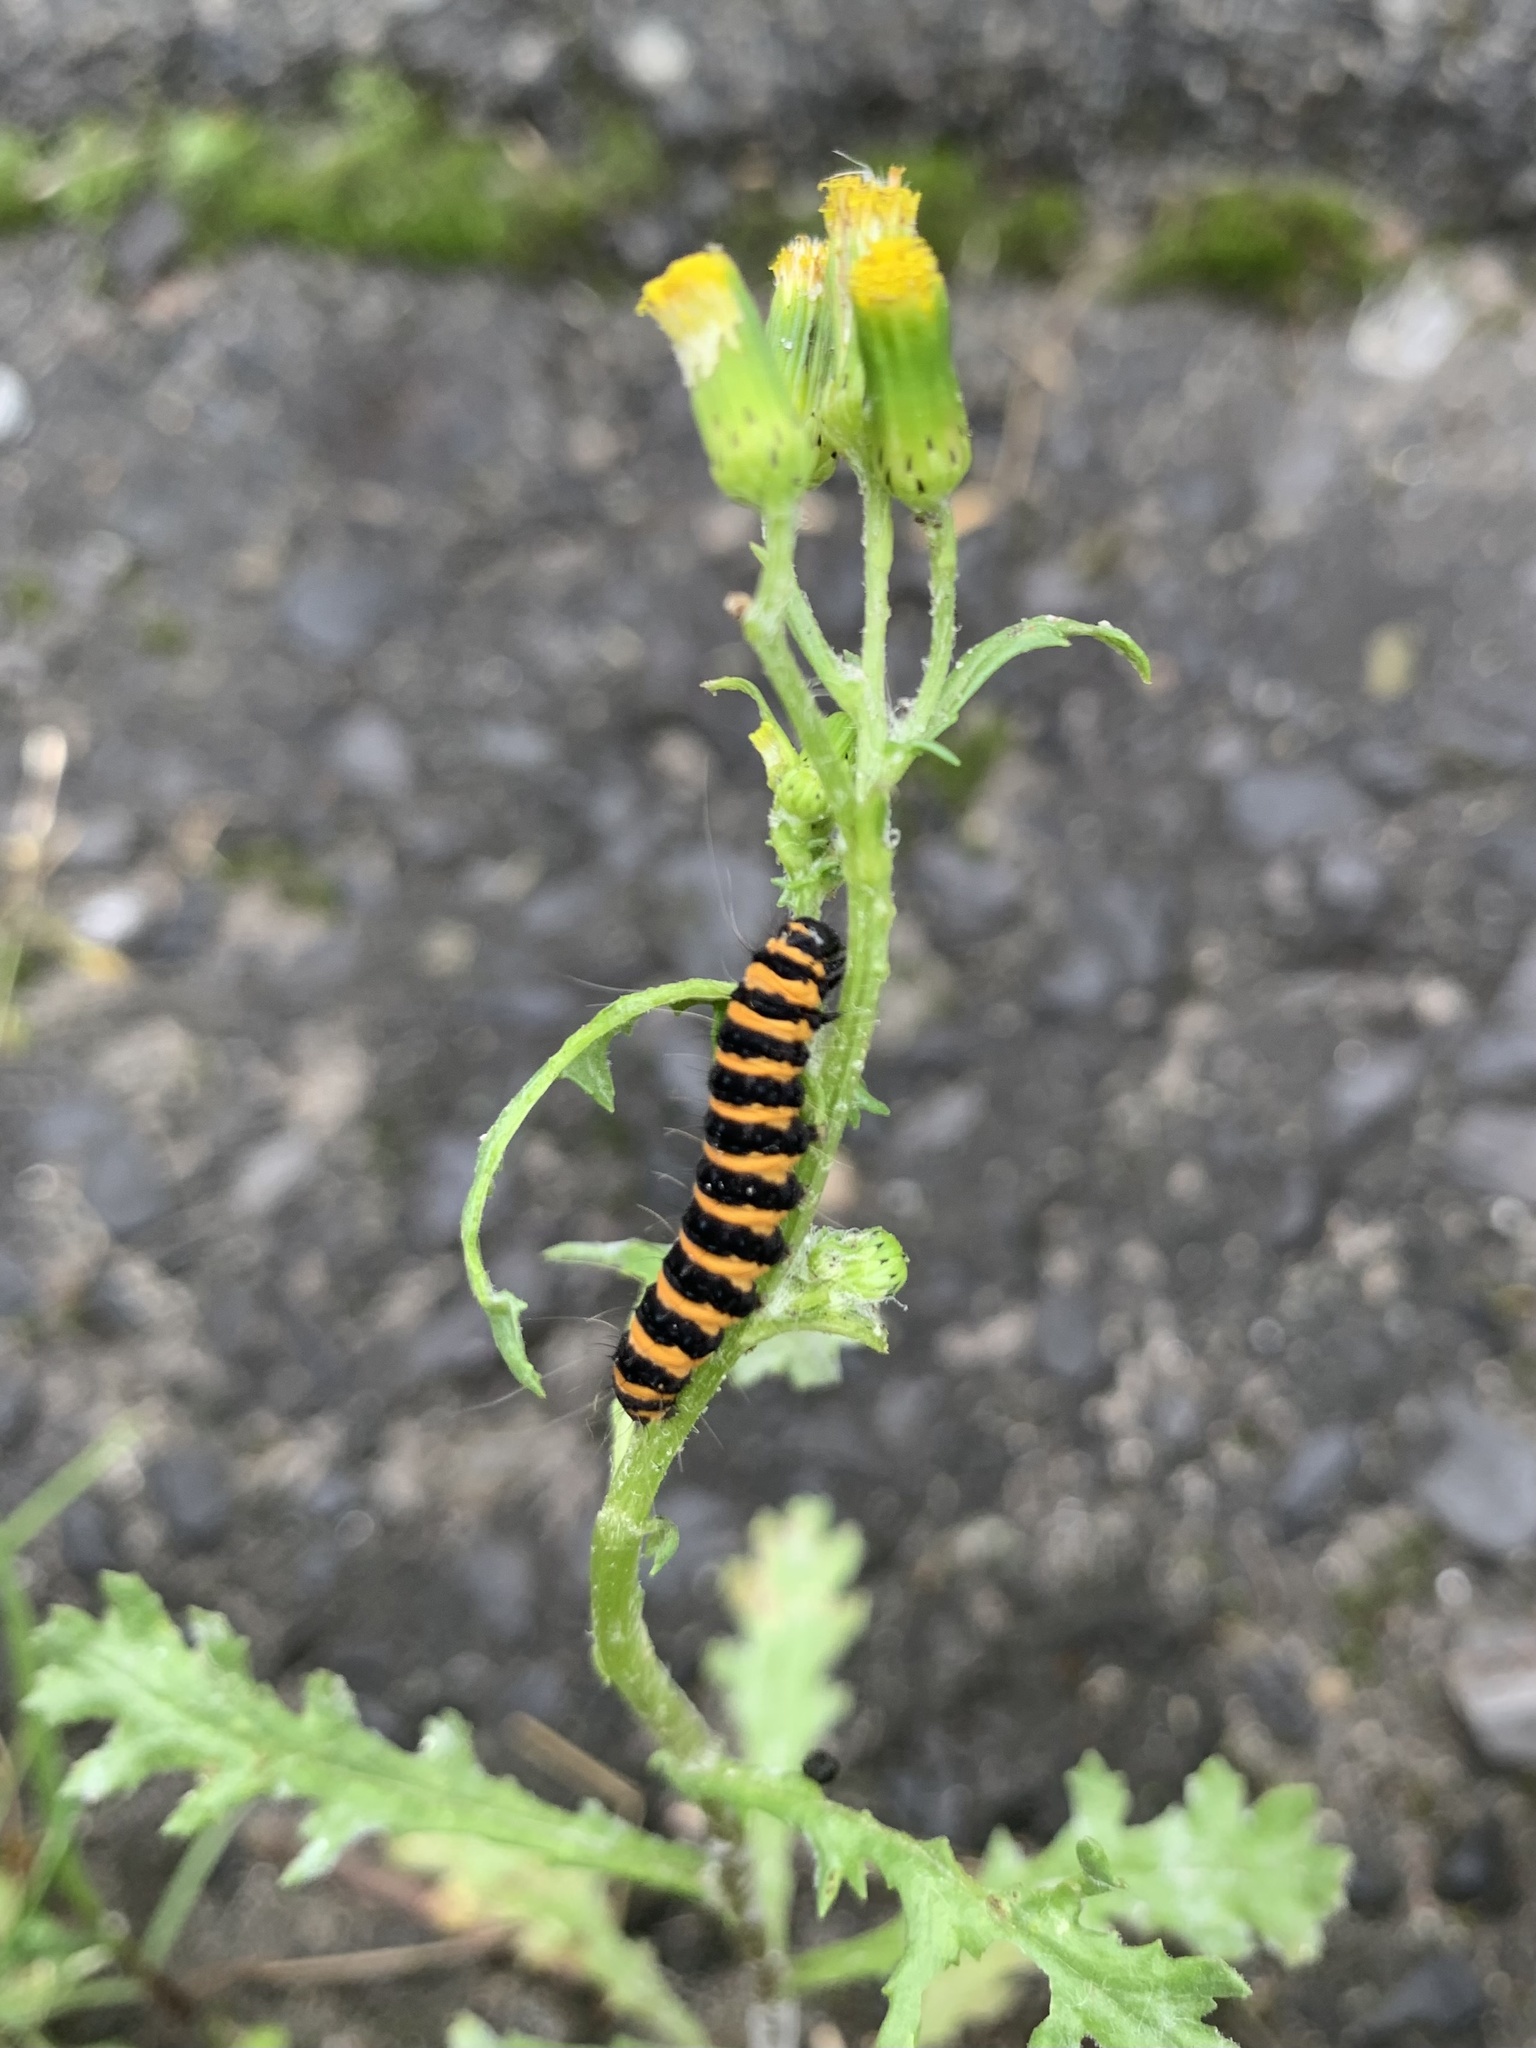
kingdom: Animalia
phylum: Arthropoda
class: Insecta
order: Lepidoptera
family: Erebidae
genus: Tyria
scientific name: Tyria jacobaeae
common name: Cinnabar
